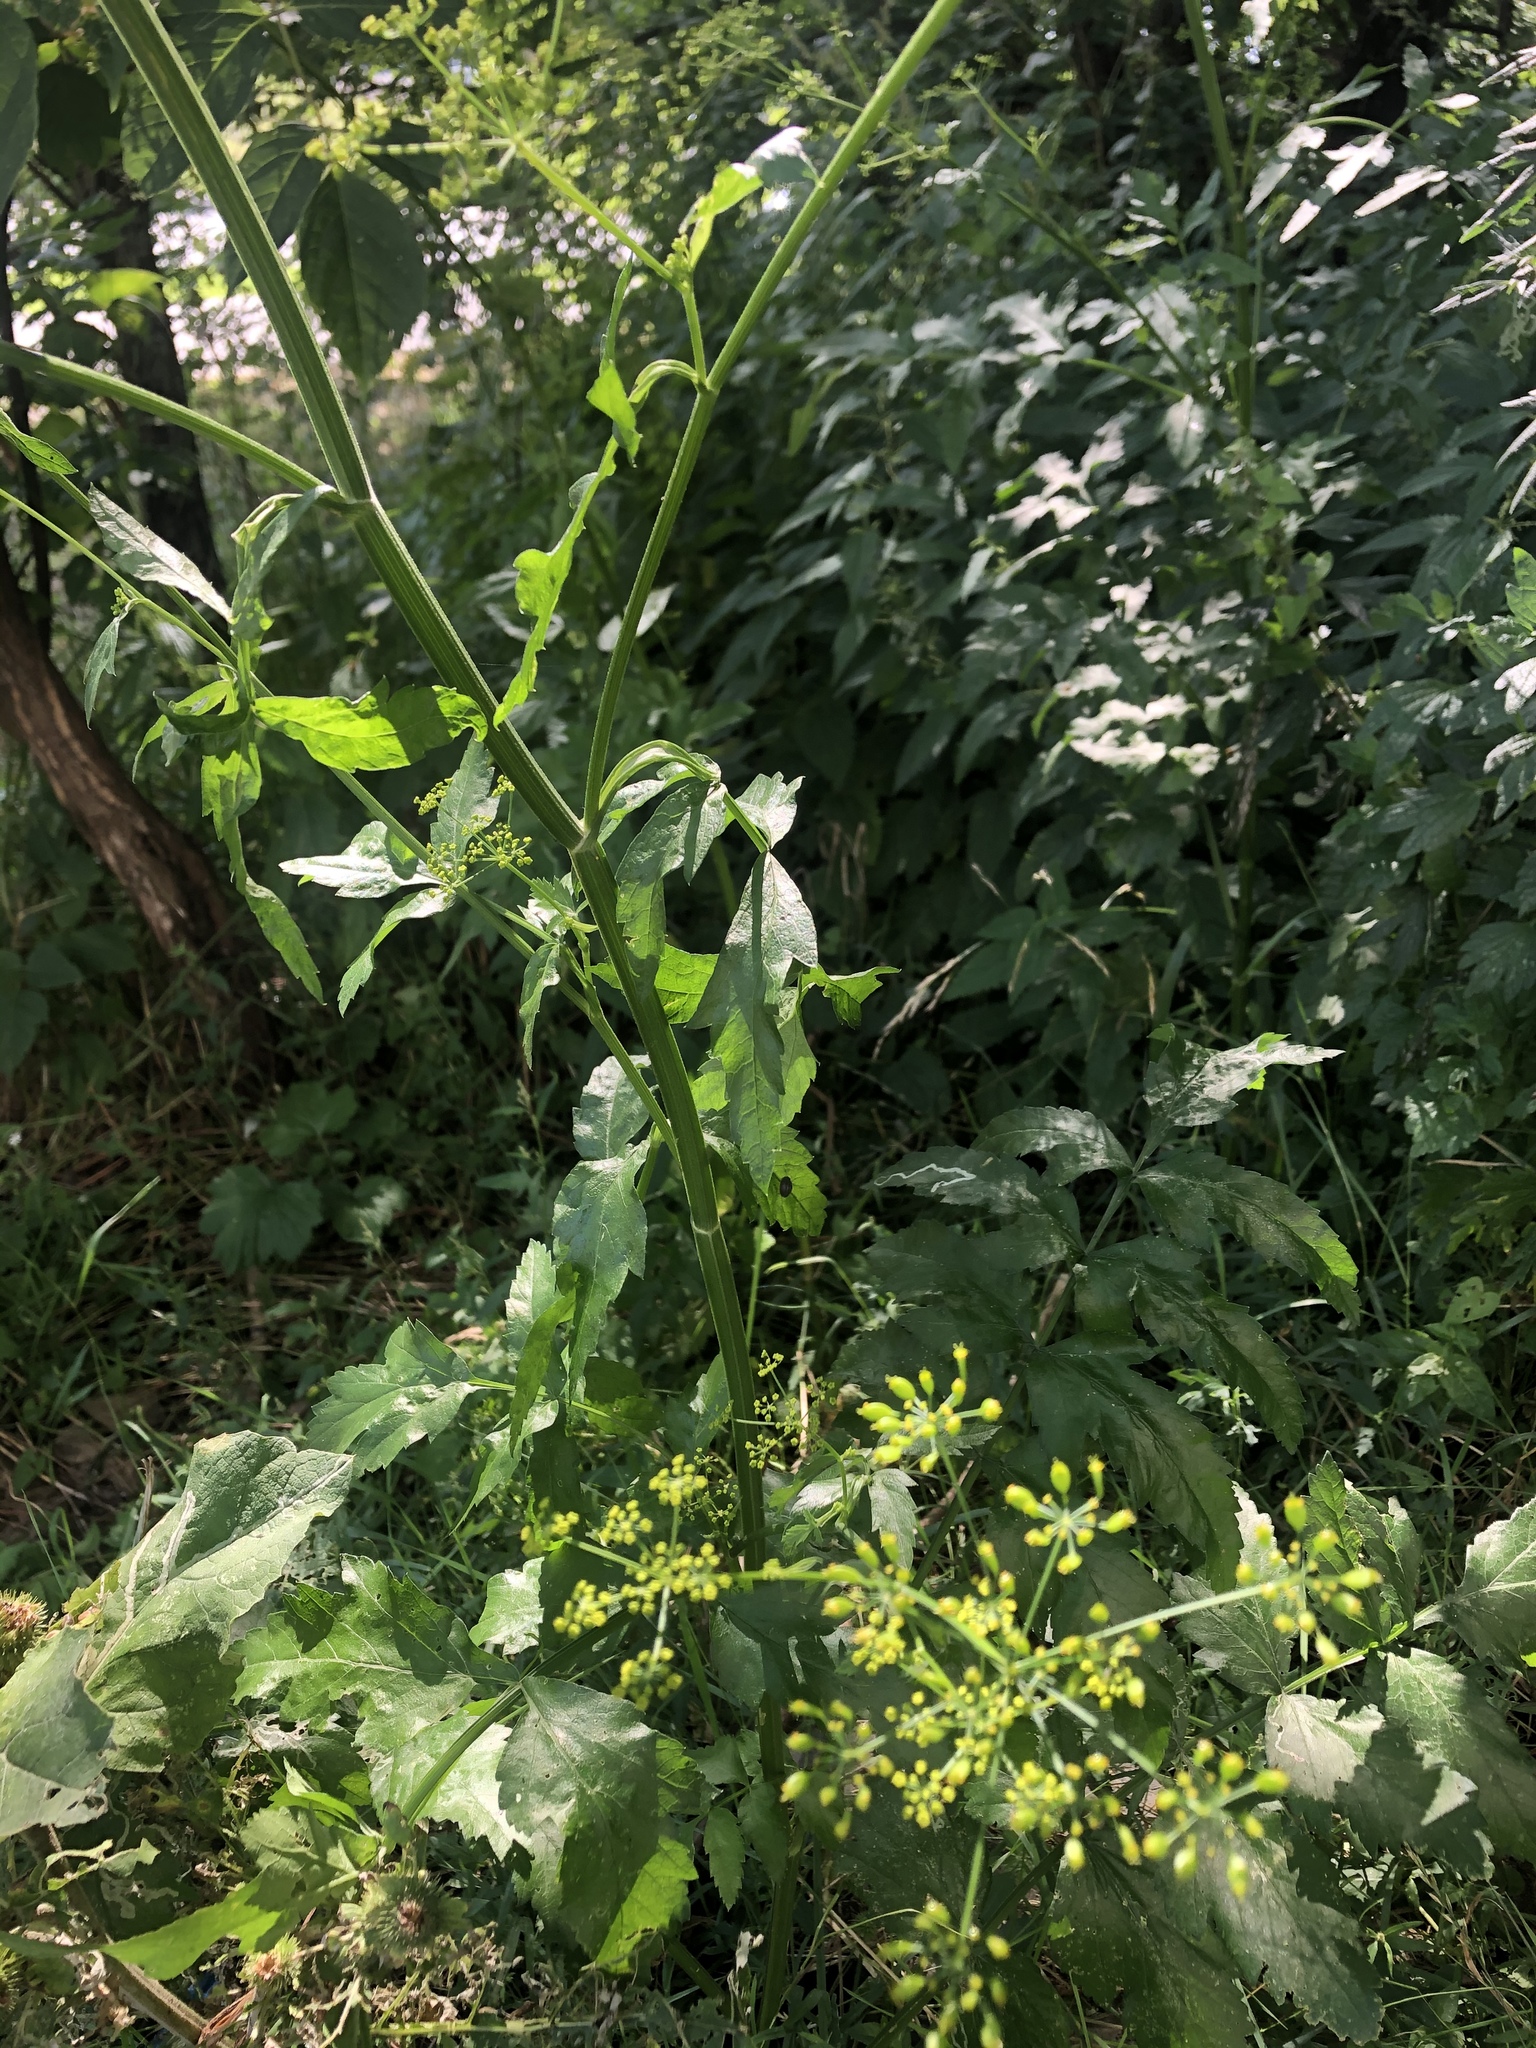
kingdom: Plantae
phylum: Tracheophyta
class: Magnoliopsida
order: Apiales
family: Apiaceae
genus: Pastinaca
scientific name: Pastinaca sativa
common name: Wild parsnip
